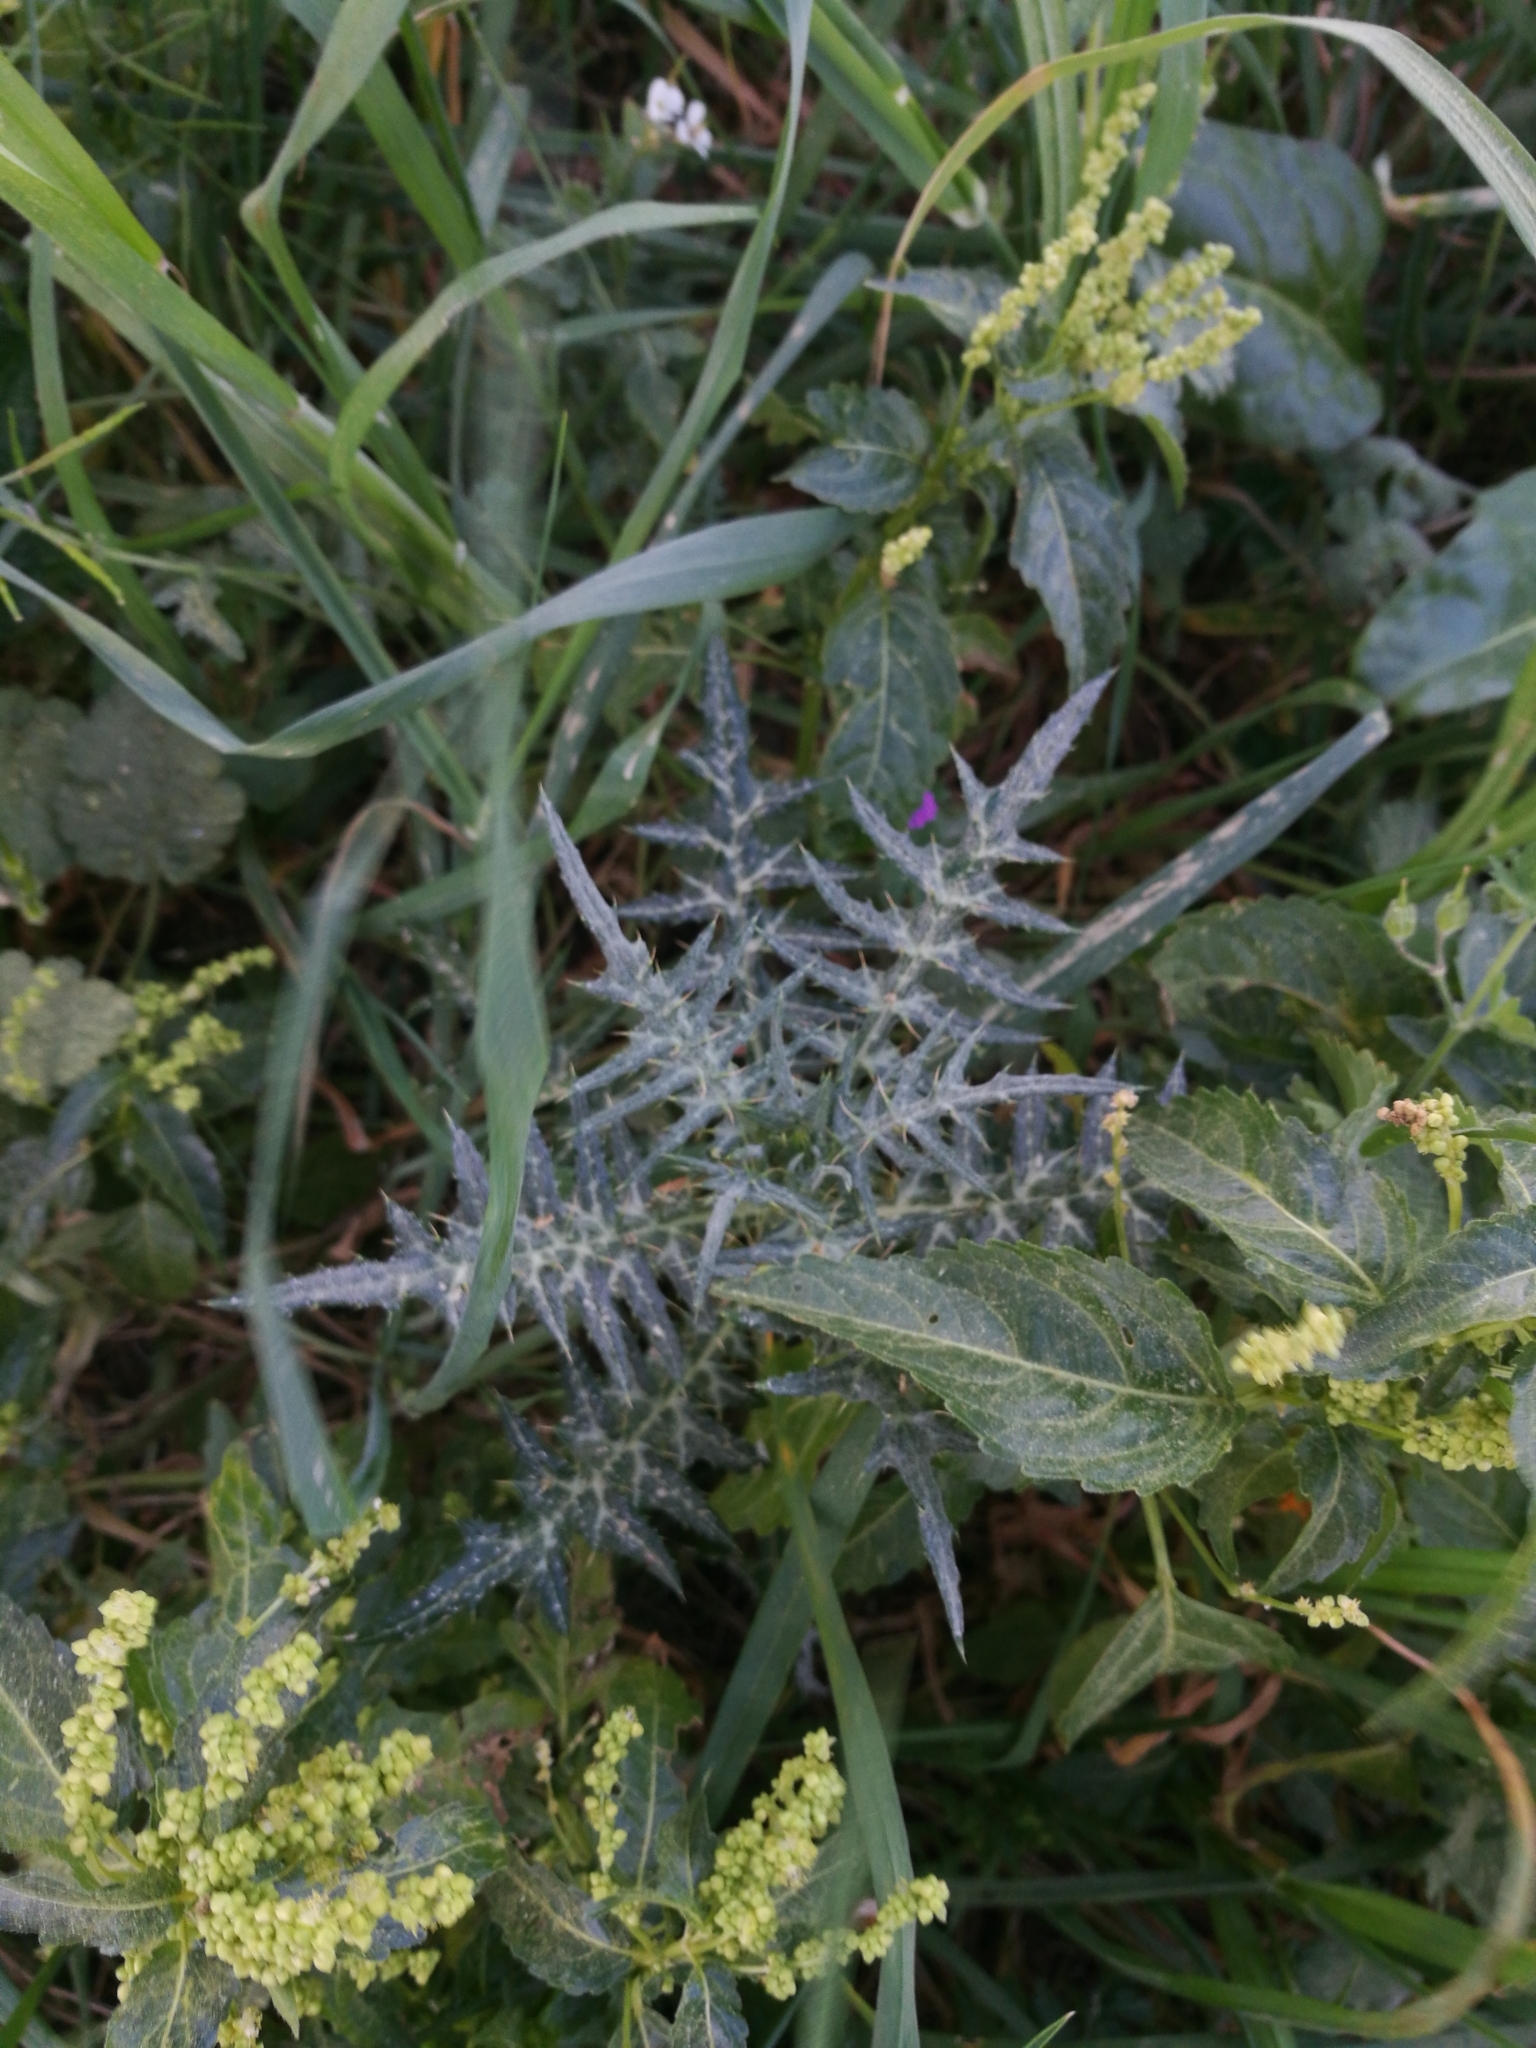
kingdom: Plantae
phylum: Tracheophyta
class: Magnoliopsida
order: Asterales
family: Asteraceae
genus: Galactites
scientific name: Galactites tomentosa
